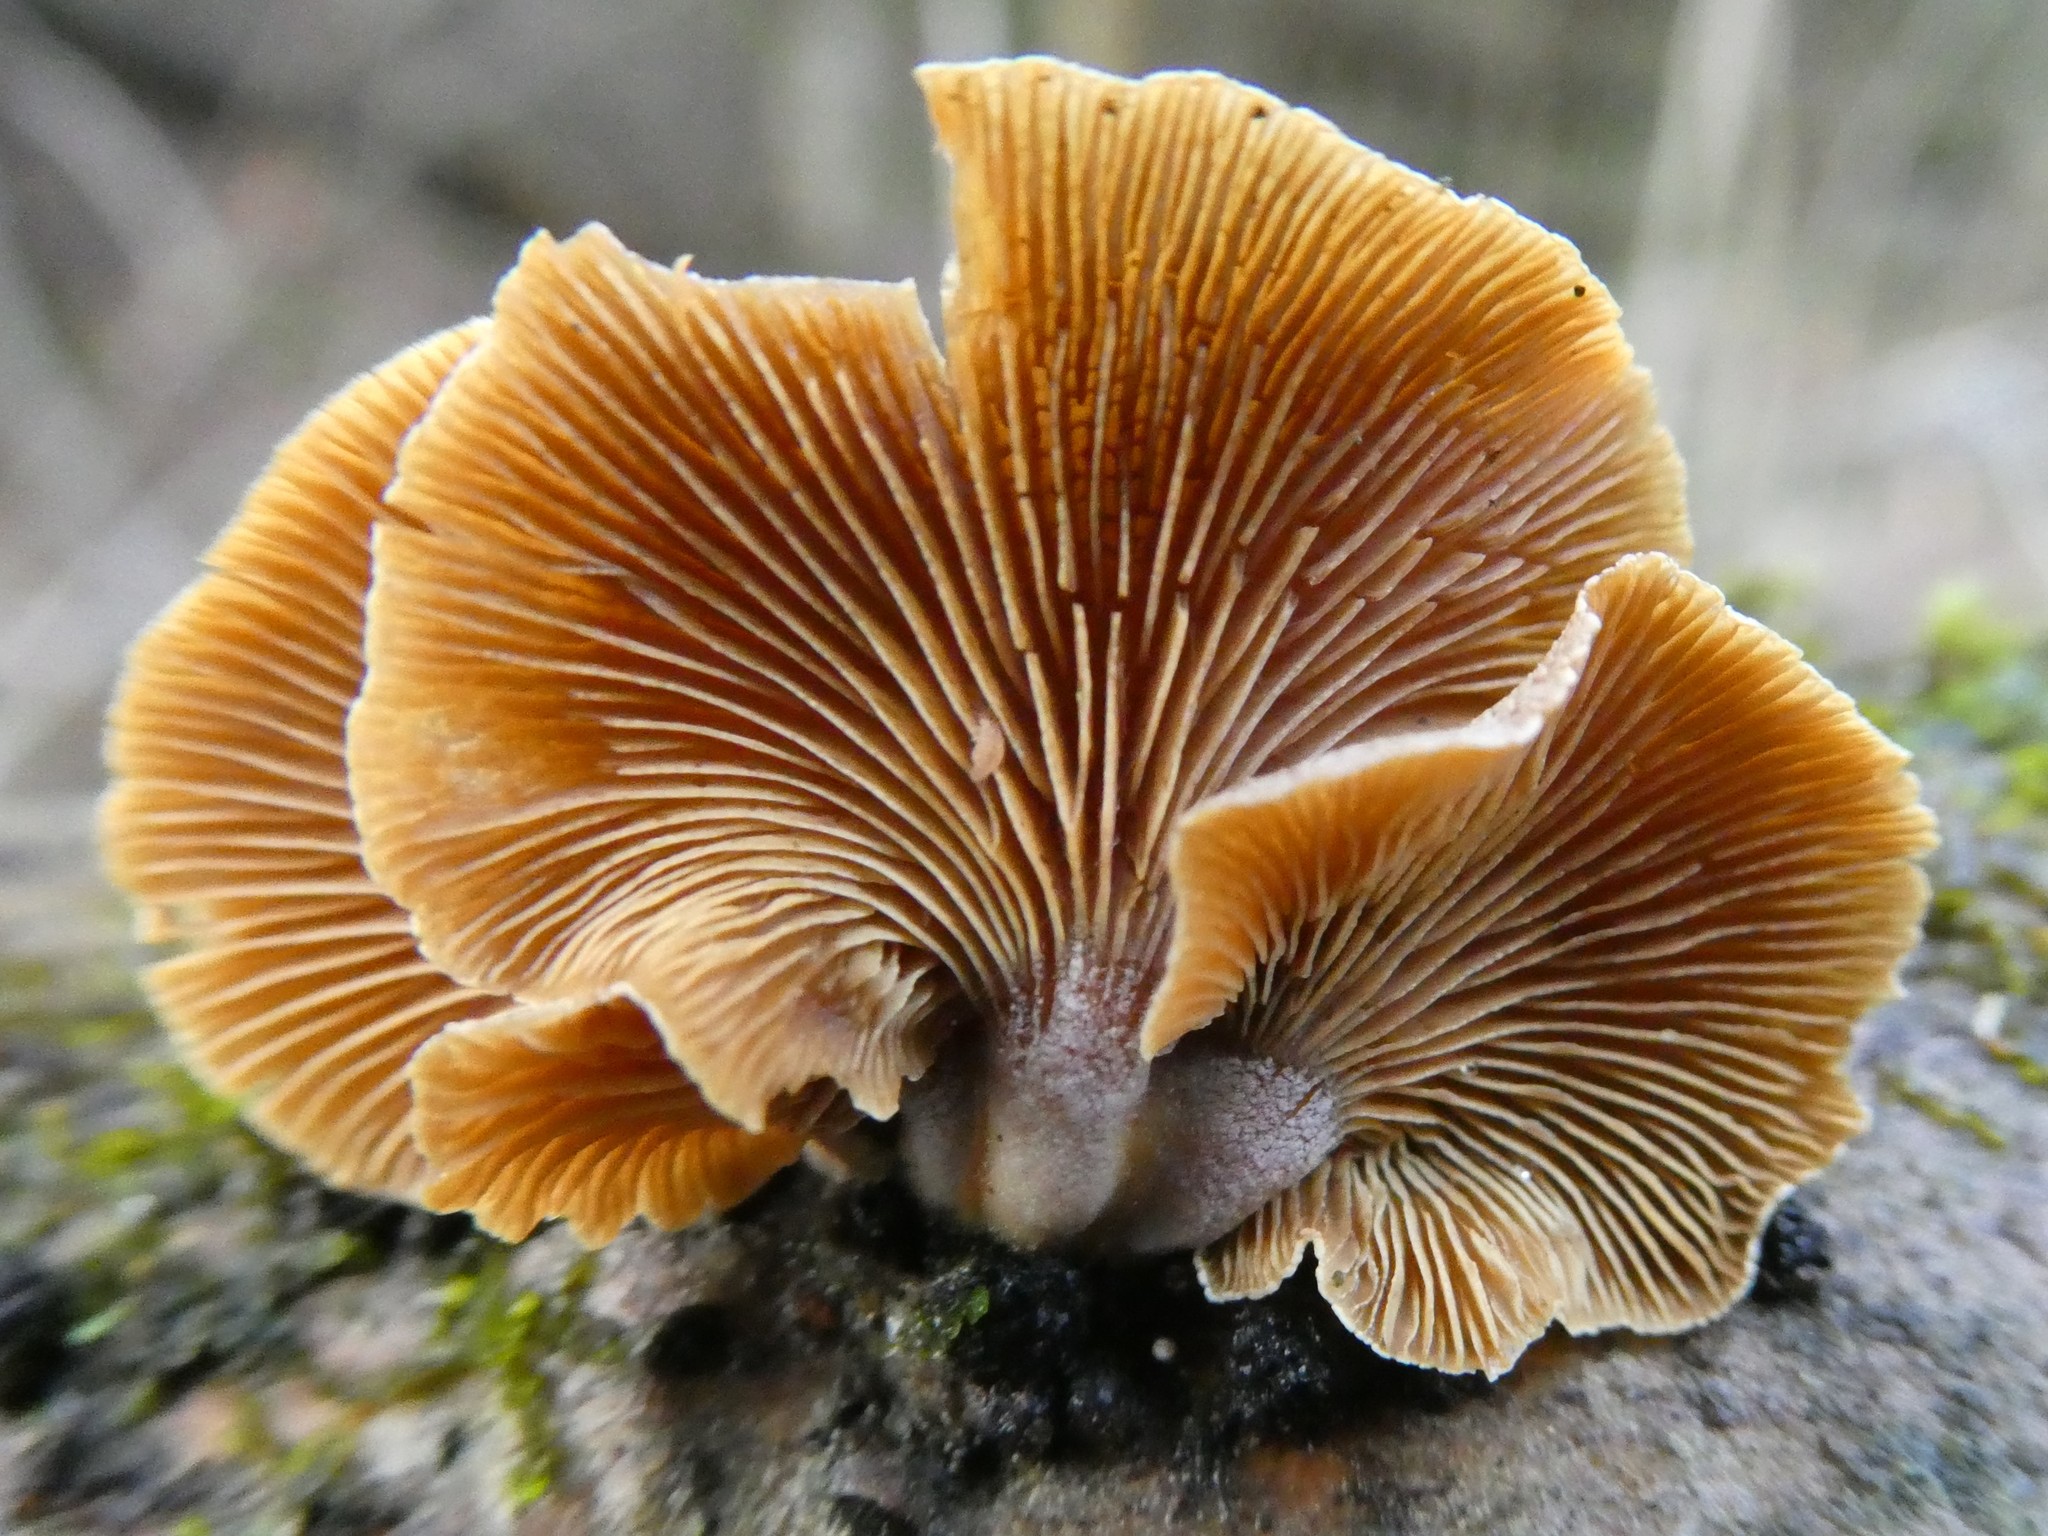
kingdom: Fungi
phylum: Basidiomycota
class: Agaricomycetes
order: Agaricales
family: Mycenaceae
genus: Panellus
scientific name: Panellus stipticus
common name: Bitter oysterling
